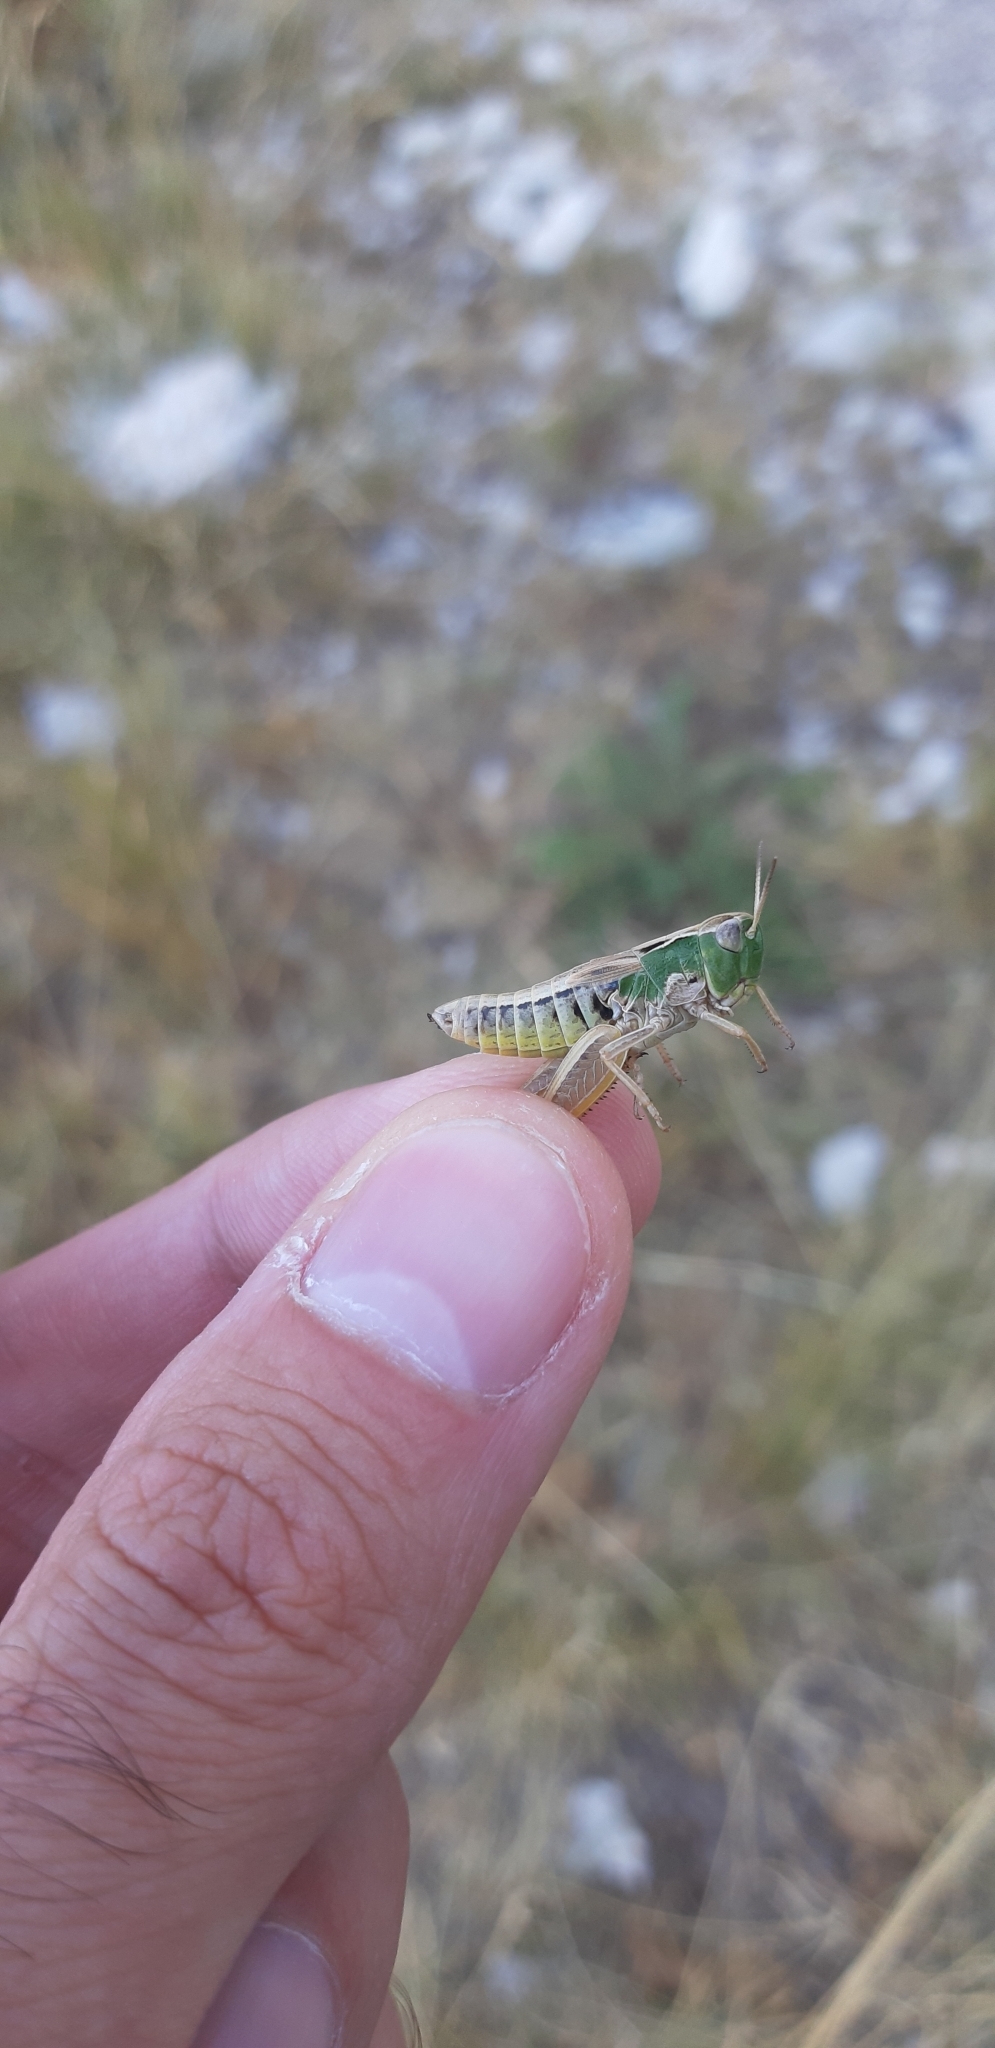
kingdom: Animalia
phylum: Arthropoda
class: Insecta
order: Orthoptera
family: Acrididae
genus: Stenobothrus
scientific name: Stenobothrus apenninus
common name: Apennine grasshopper
